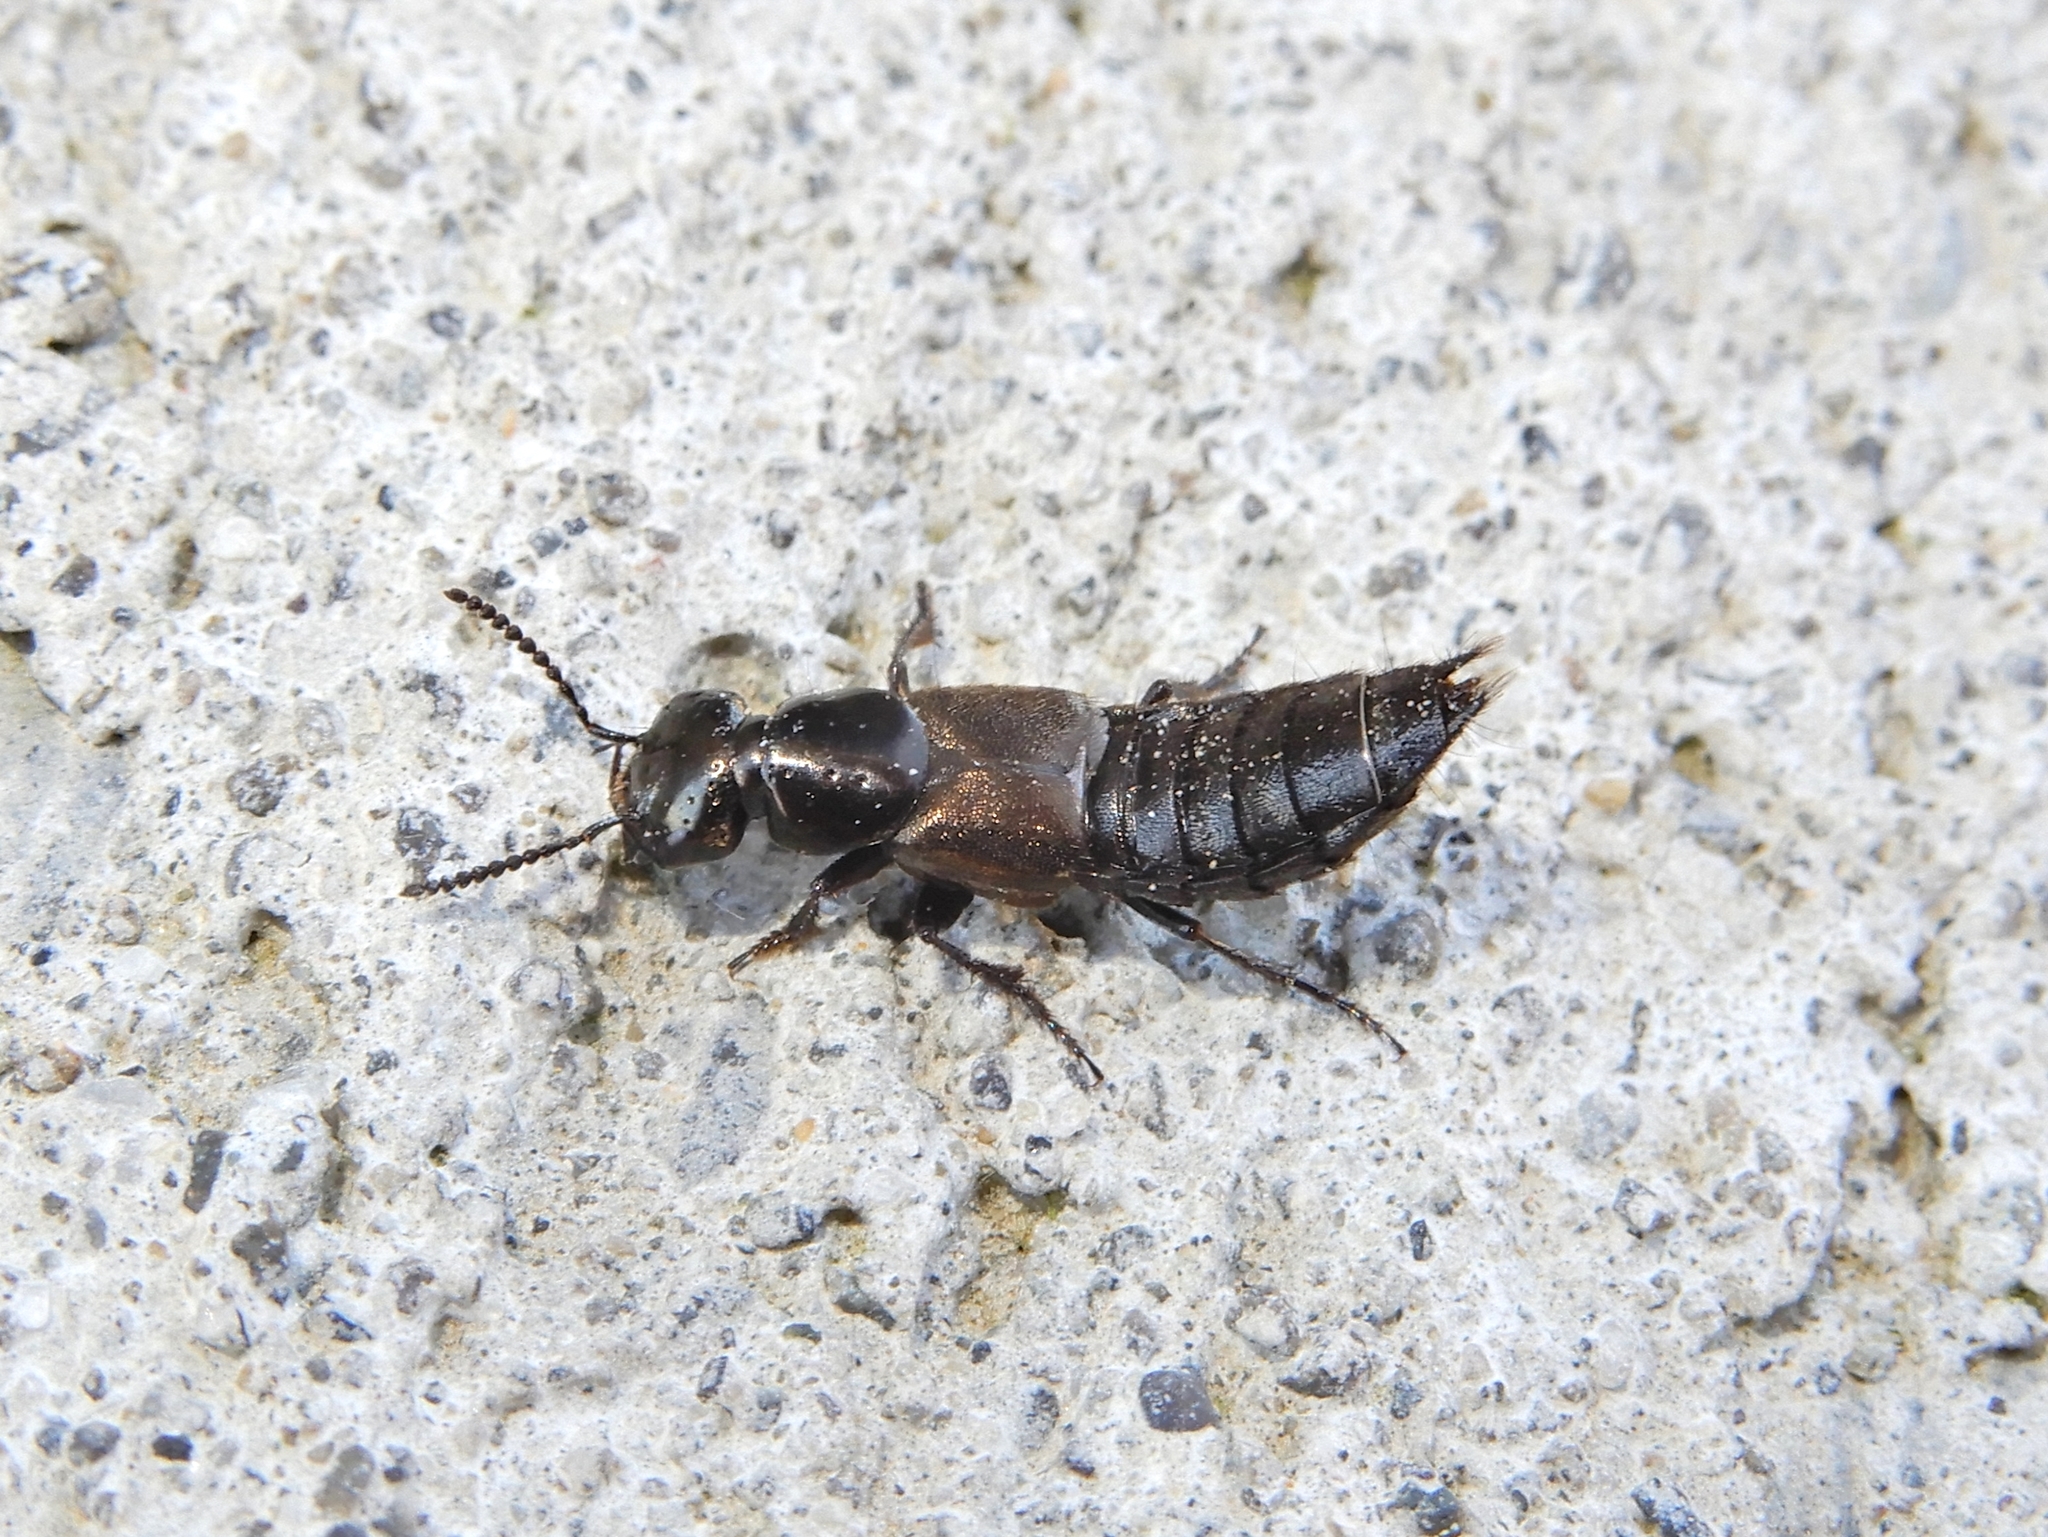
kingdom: Animalia
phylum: Arthropoda
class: Insecta
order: Coleoptera
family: Staphylinidae
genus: Philonthus
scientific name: Philonthus politus
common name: Rove beetle
